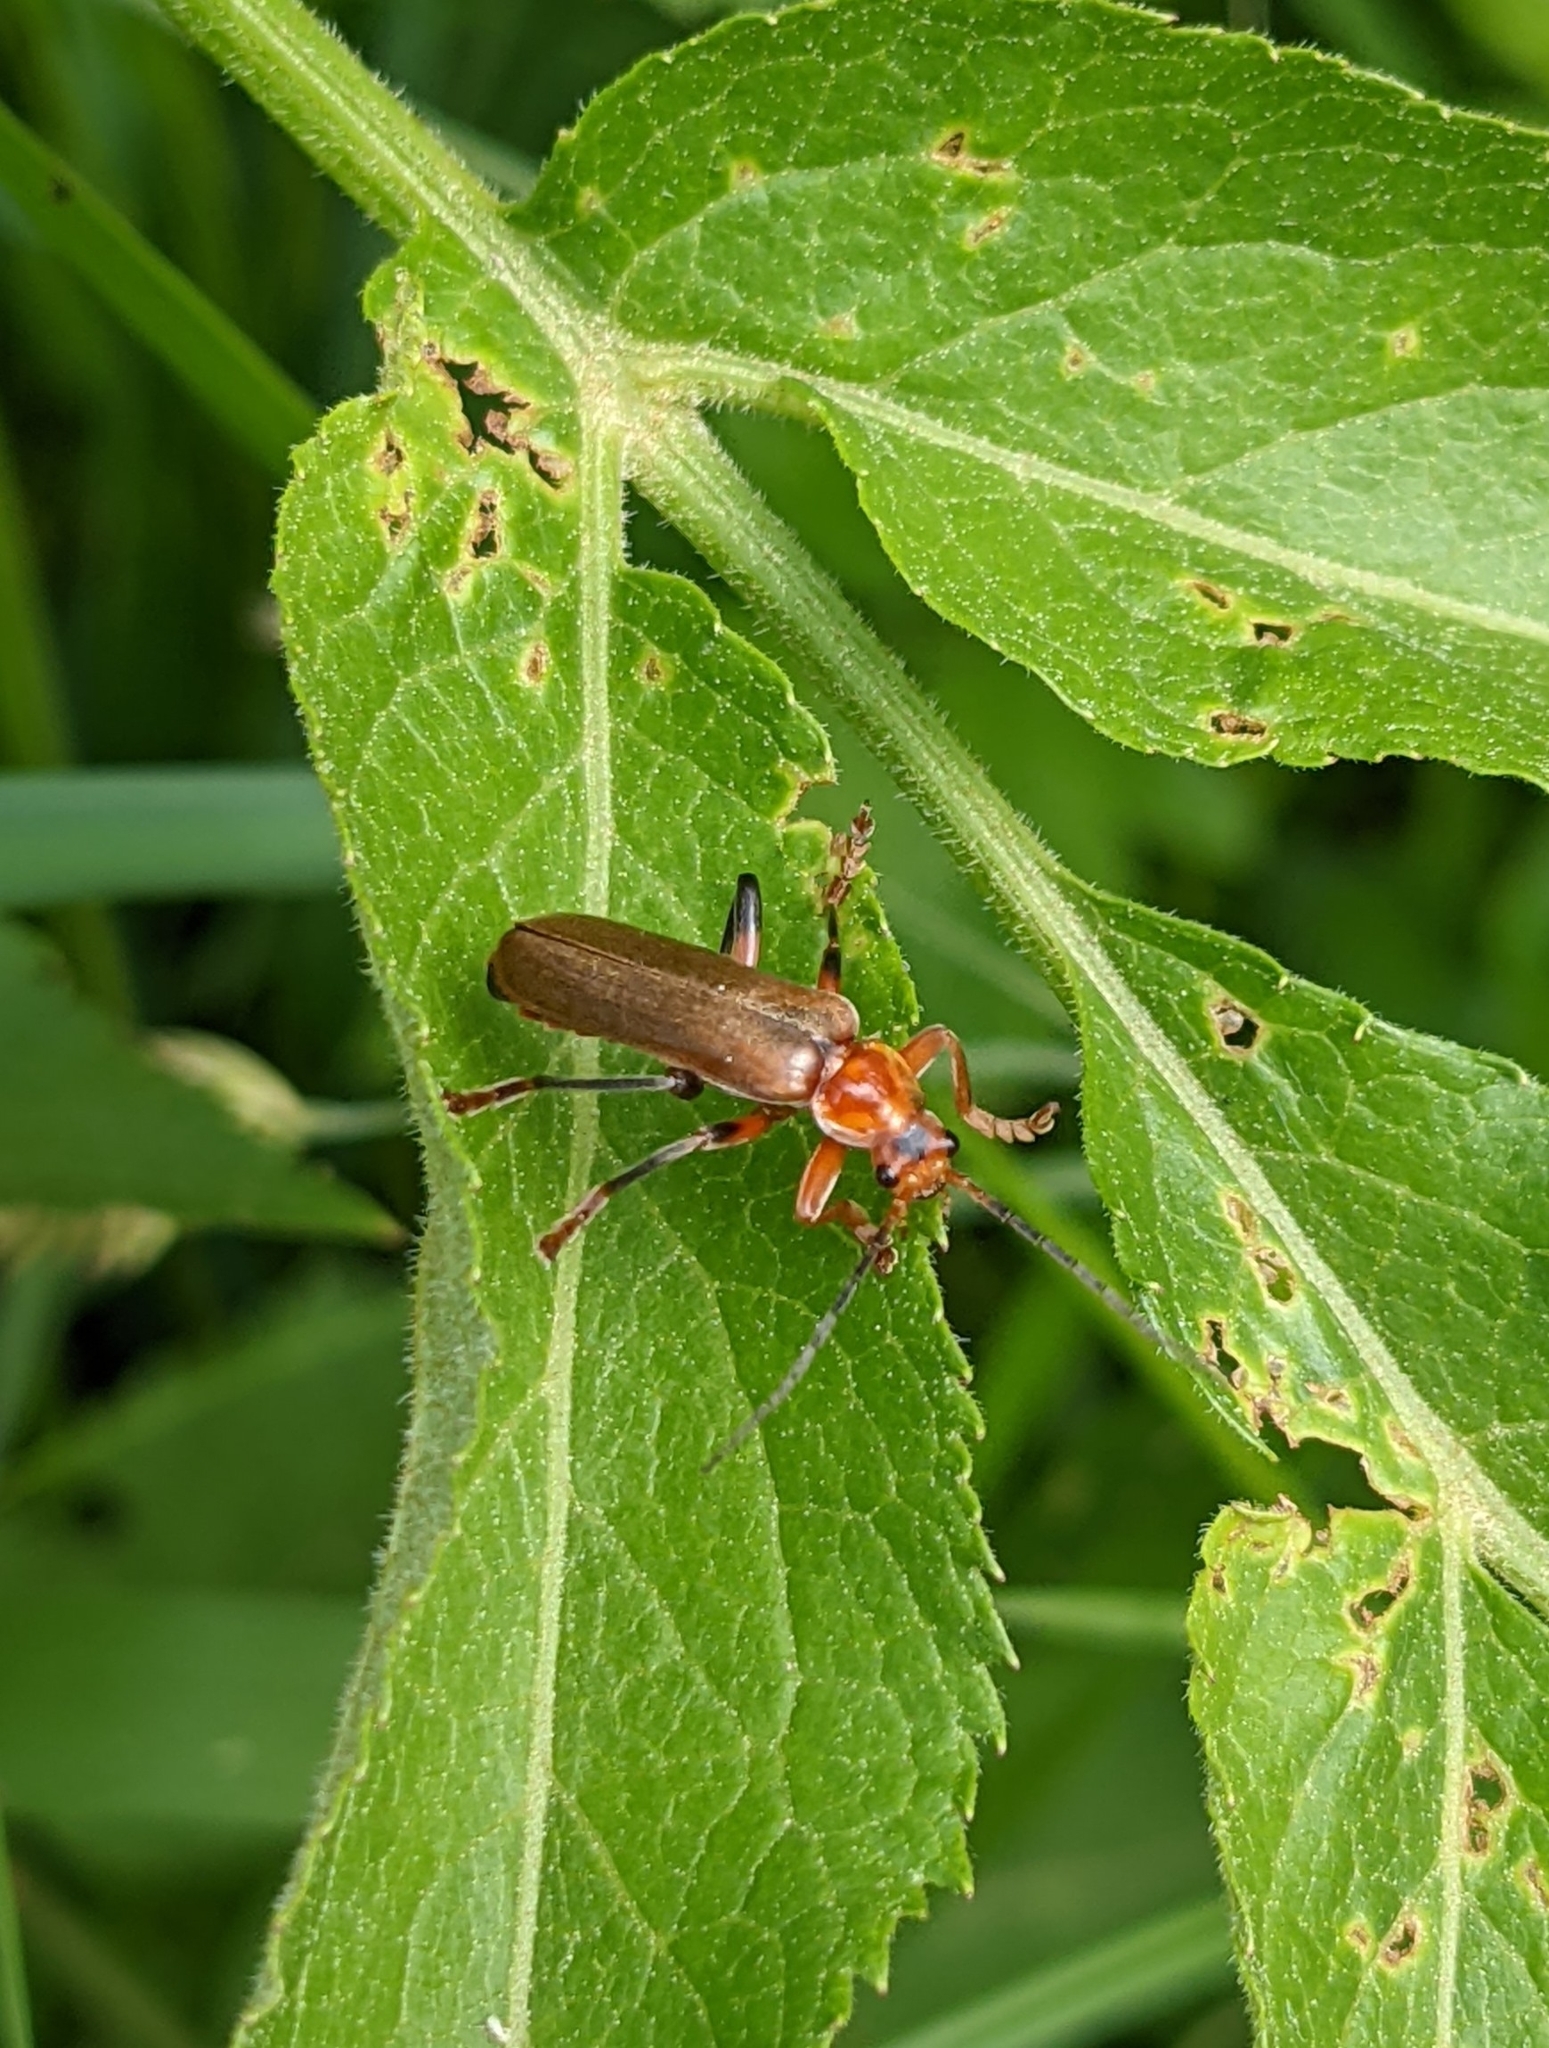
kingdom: Animalia
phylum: Arthropoda
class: Insecta
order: Coleoptera
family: Cantharidae
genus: Cantharis
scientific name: Cantharis livida
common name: Livid soldier beetle
